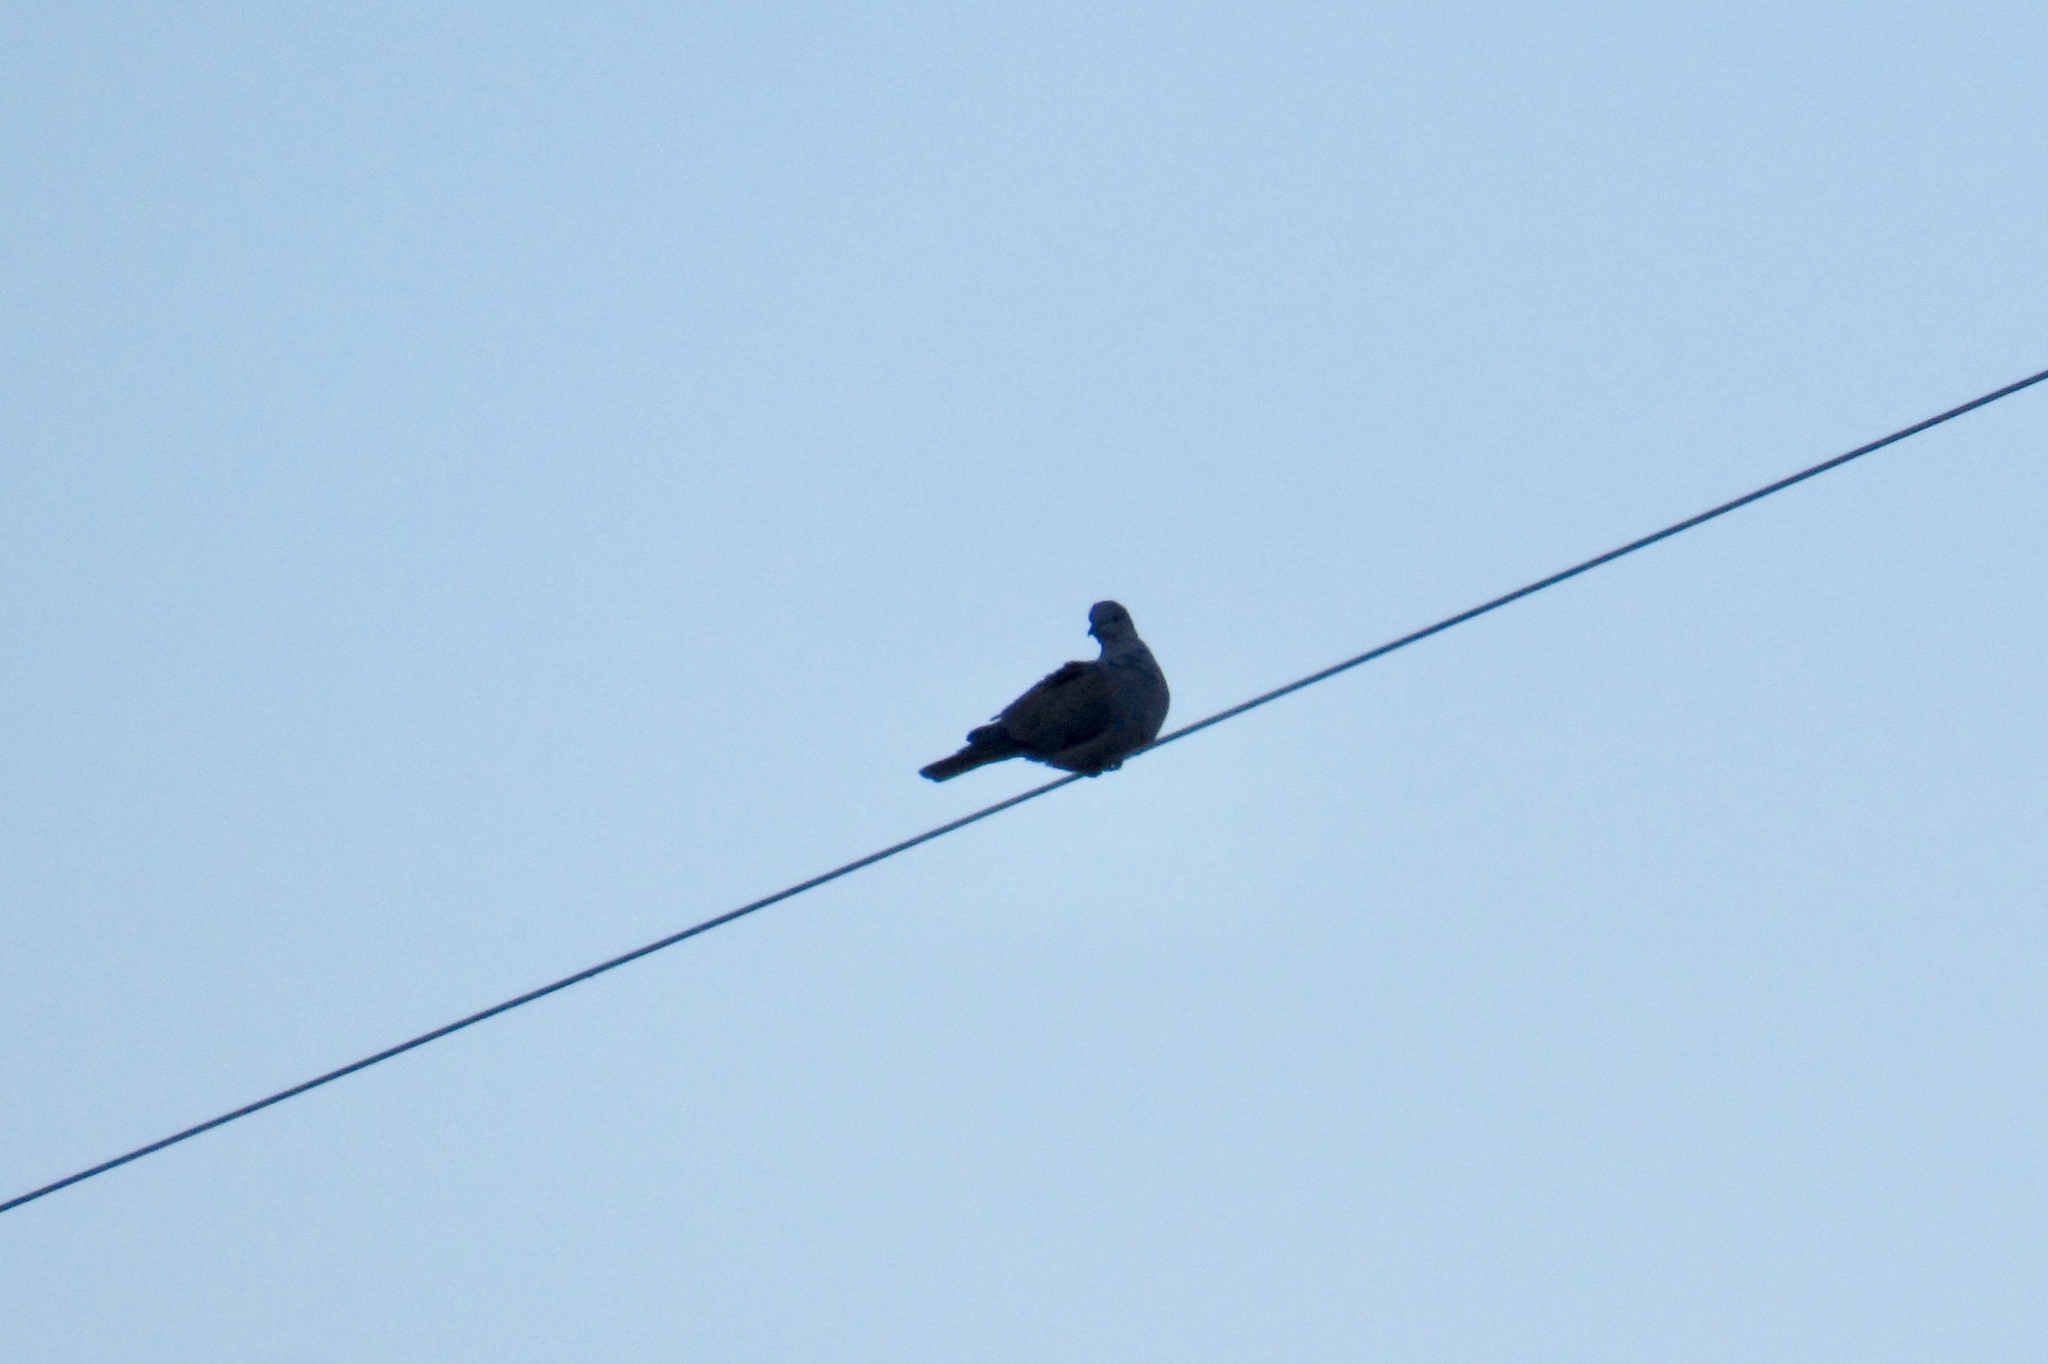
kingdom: Animalia
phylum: Chordata
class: Aves
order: Columbiformes
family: Columbidae
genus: Streptopelia
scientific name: Streptopelia decaocto
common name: Eurasian collared dove
